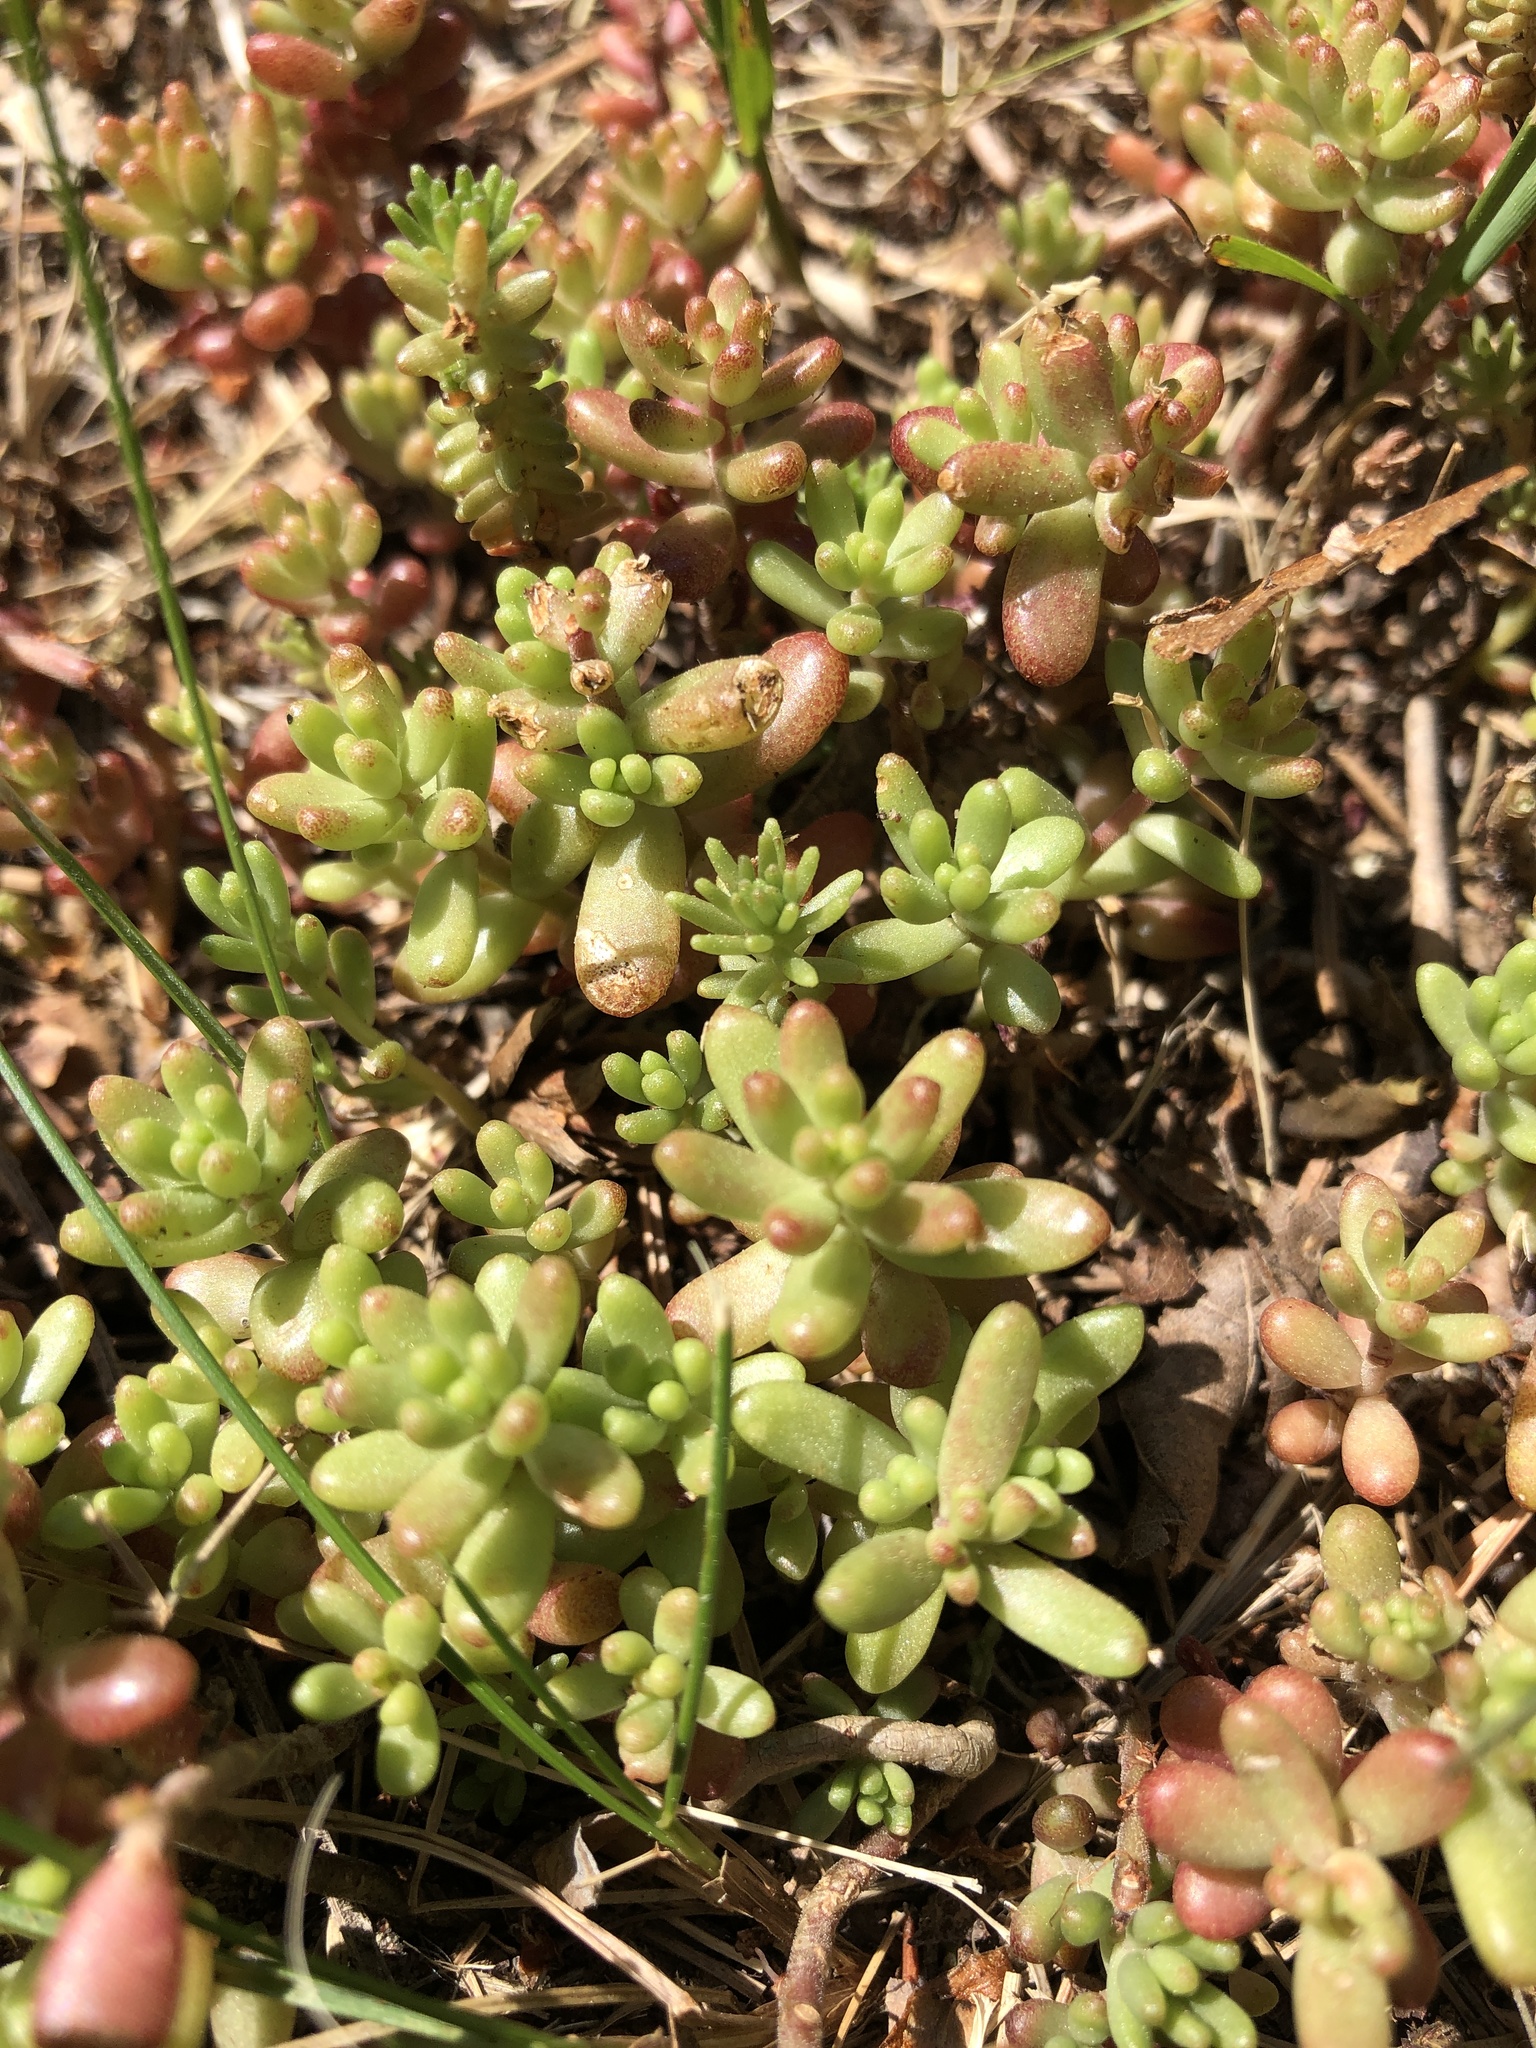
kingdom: Plantae
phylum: Tracheophyta
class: Magnoliopsida
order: Saxifragales
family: Crassulaceae
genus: Sedum
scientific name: Sedum album
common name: White stonecrop
